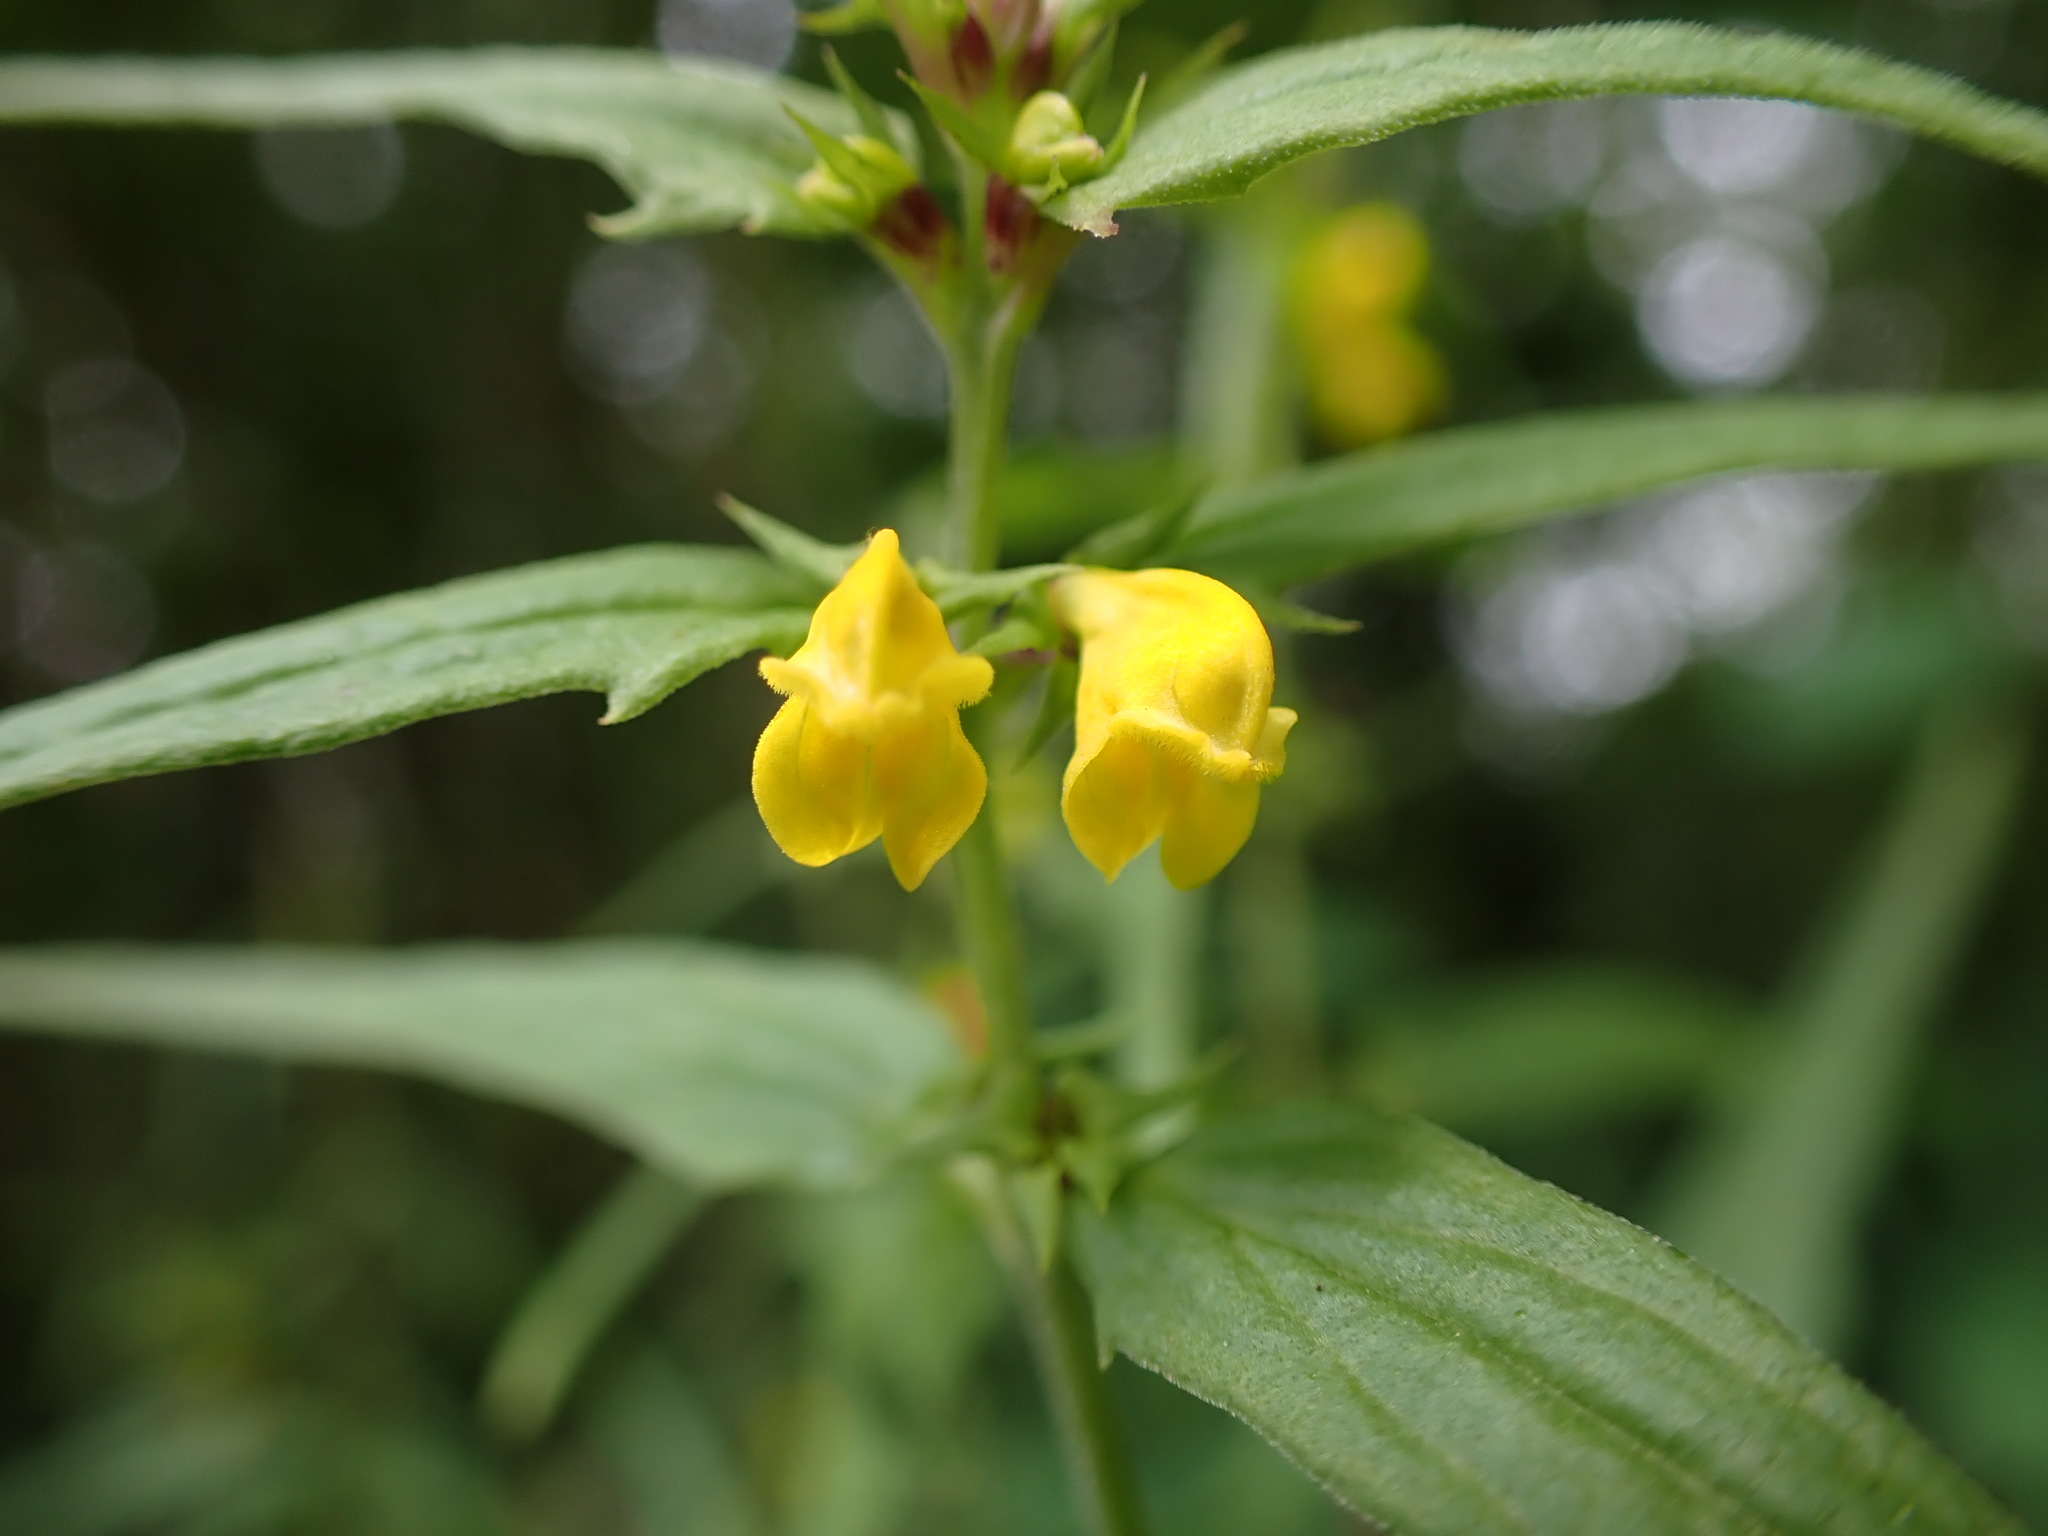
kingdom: Plantae
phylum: Tracheophyta
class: Magnoliopsida
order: Lamiales
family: Orobanchaceae
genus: Melampyrum
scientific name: Melampyrum sylvaticum
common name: Small cow-wheat
